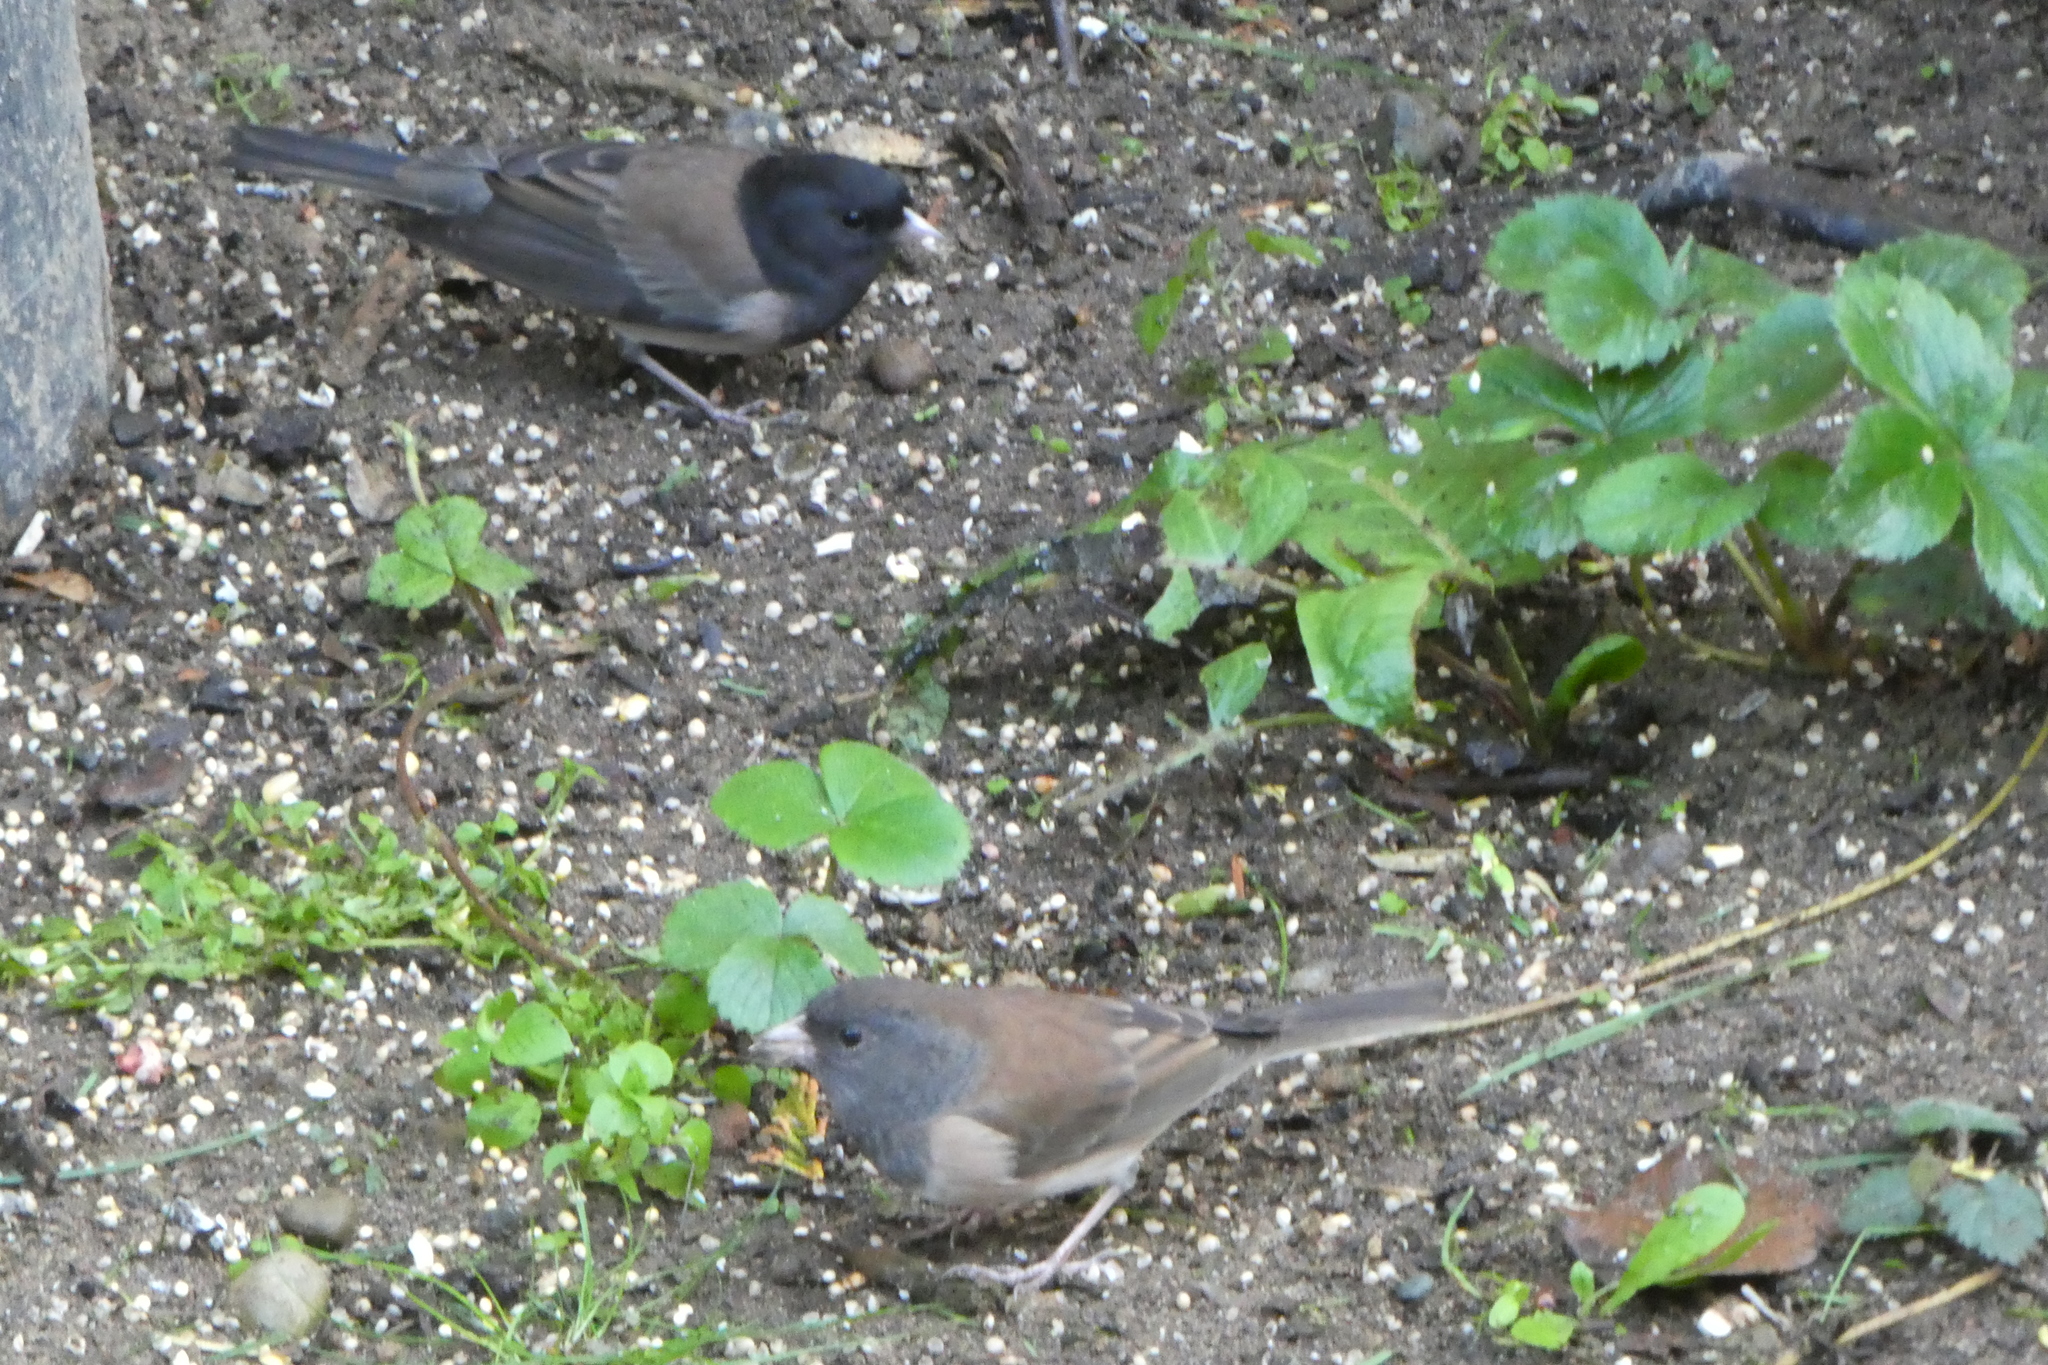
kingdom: Animalia
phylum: Chordata
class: Aves
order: Passeriformes
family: Passerellidae
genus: Junco
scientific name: Junco hyemalis
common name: Dark-eyed junco
